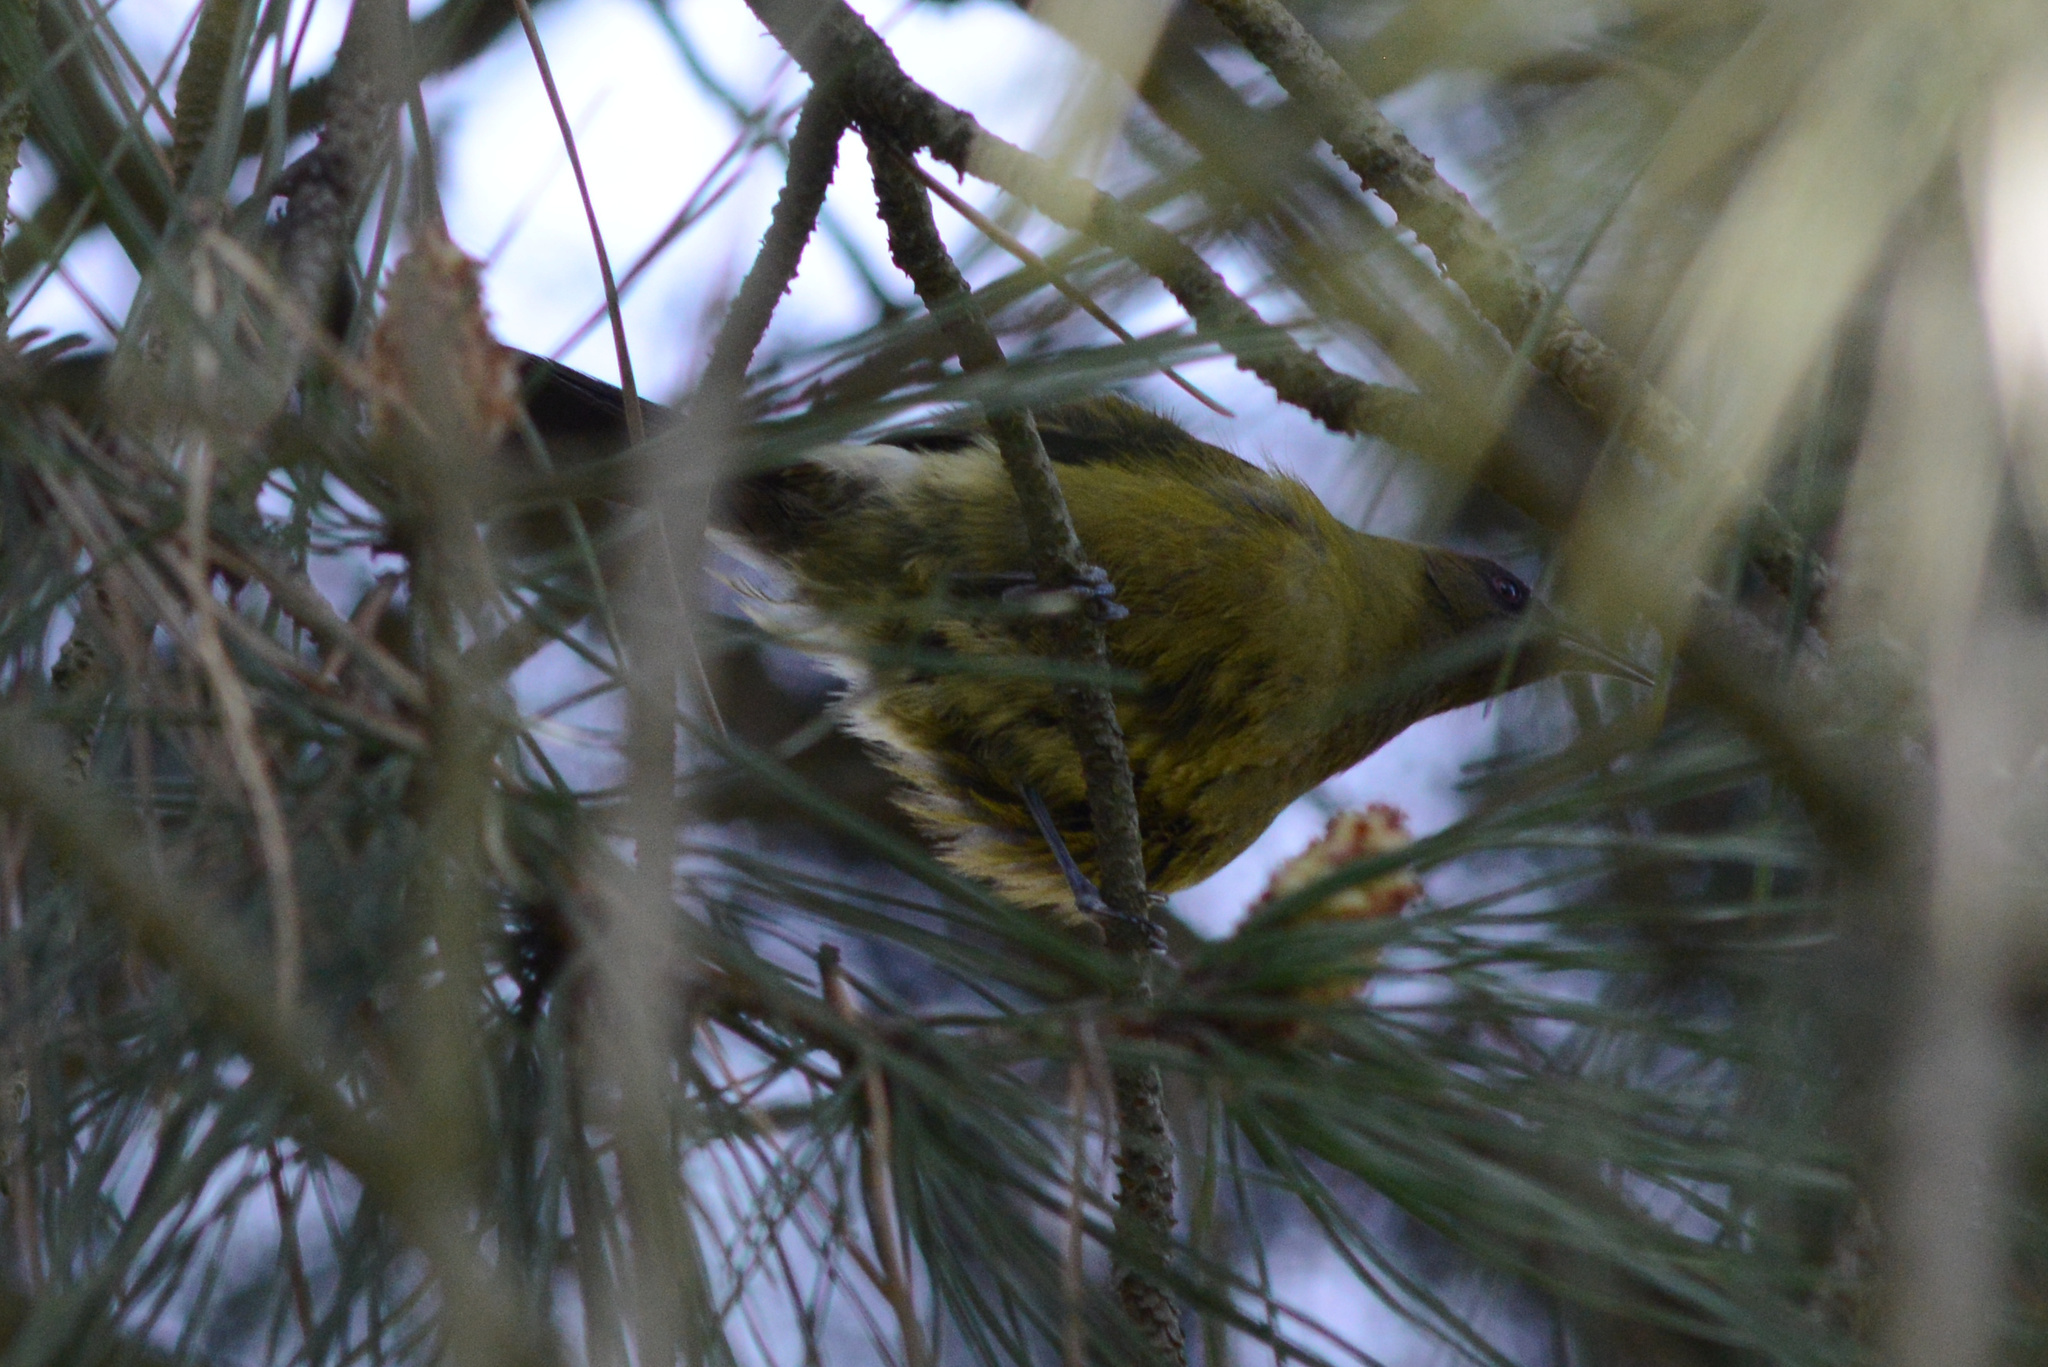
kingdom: Animalia
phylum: Chordata
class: Aves
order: Passeriformes
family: Meliphagidae
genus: Anthornis
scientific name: Anthornis melanura
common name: New zealand bellbird
